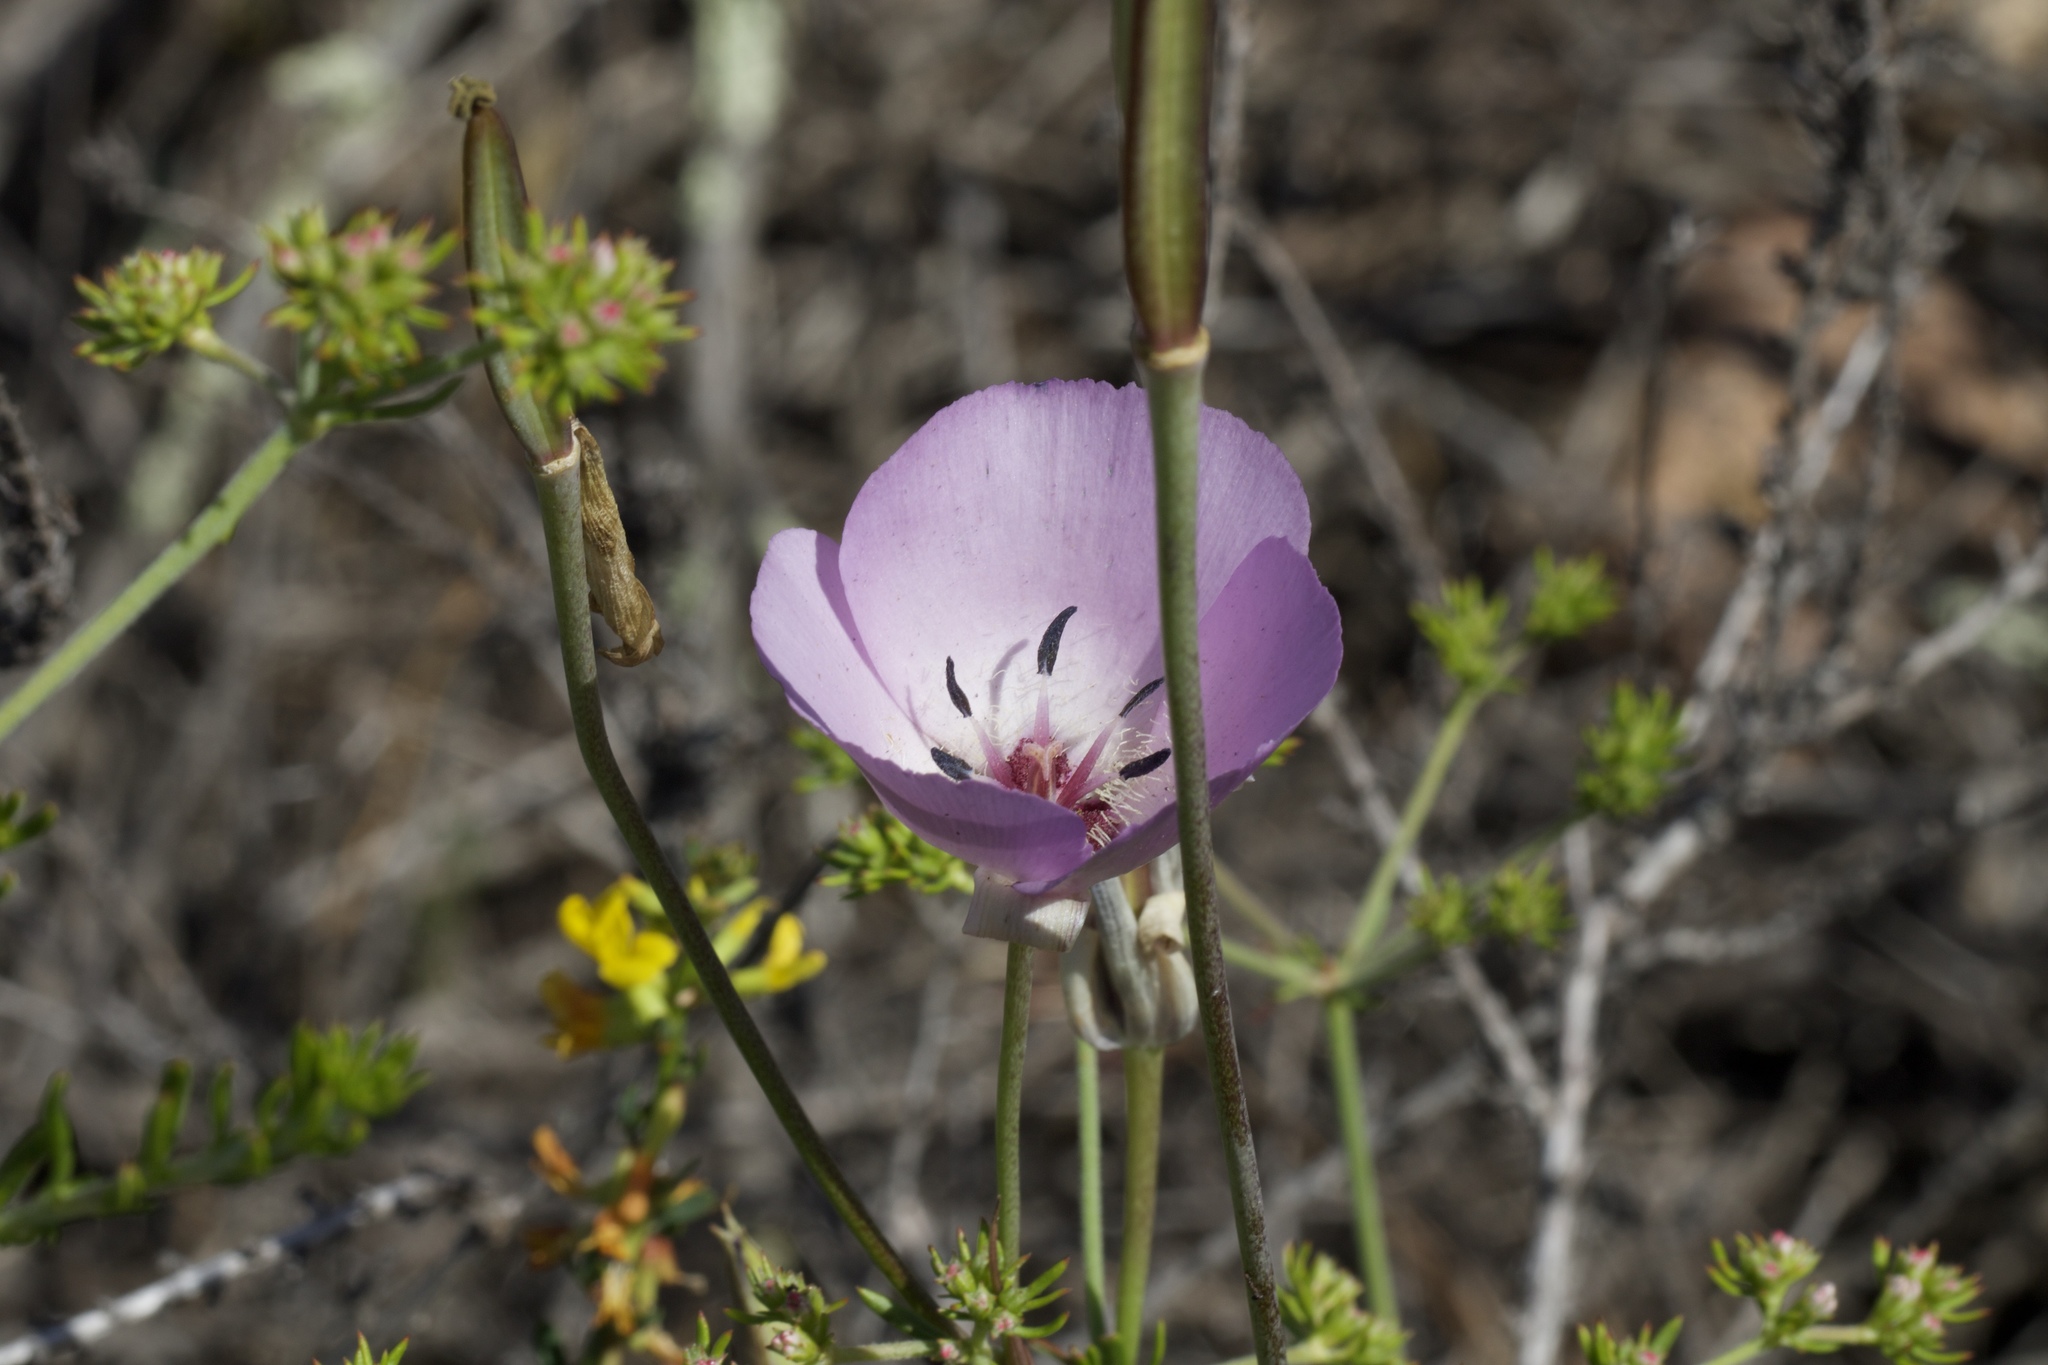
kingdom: Plantae
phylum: Tracheophyta
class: Liliopsida
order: Liliales
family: Liliaceae
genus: Calochortus
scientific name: Calochortus splendens
